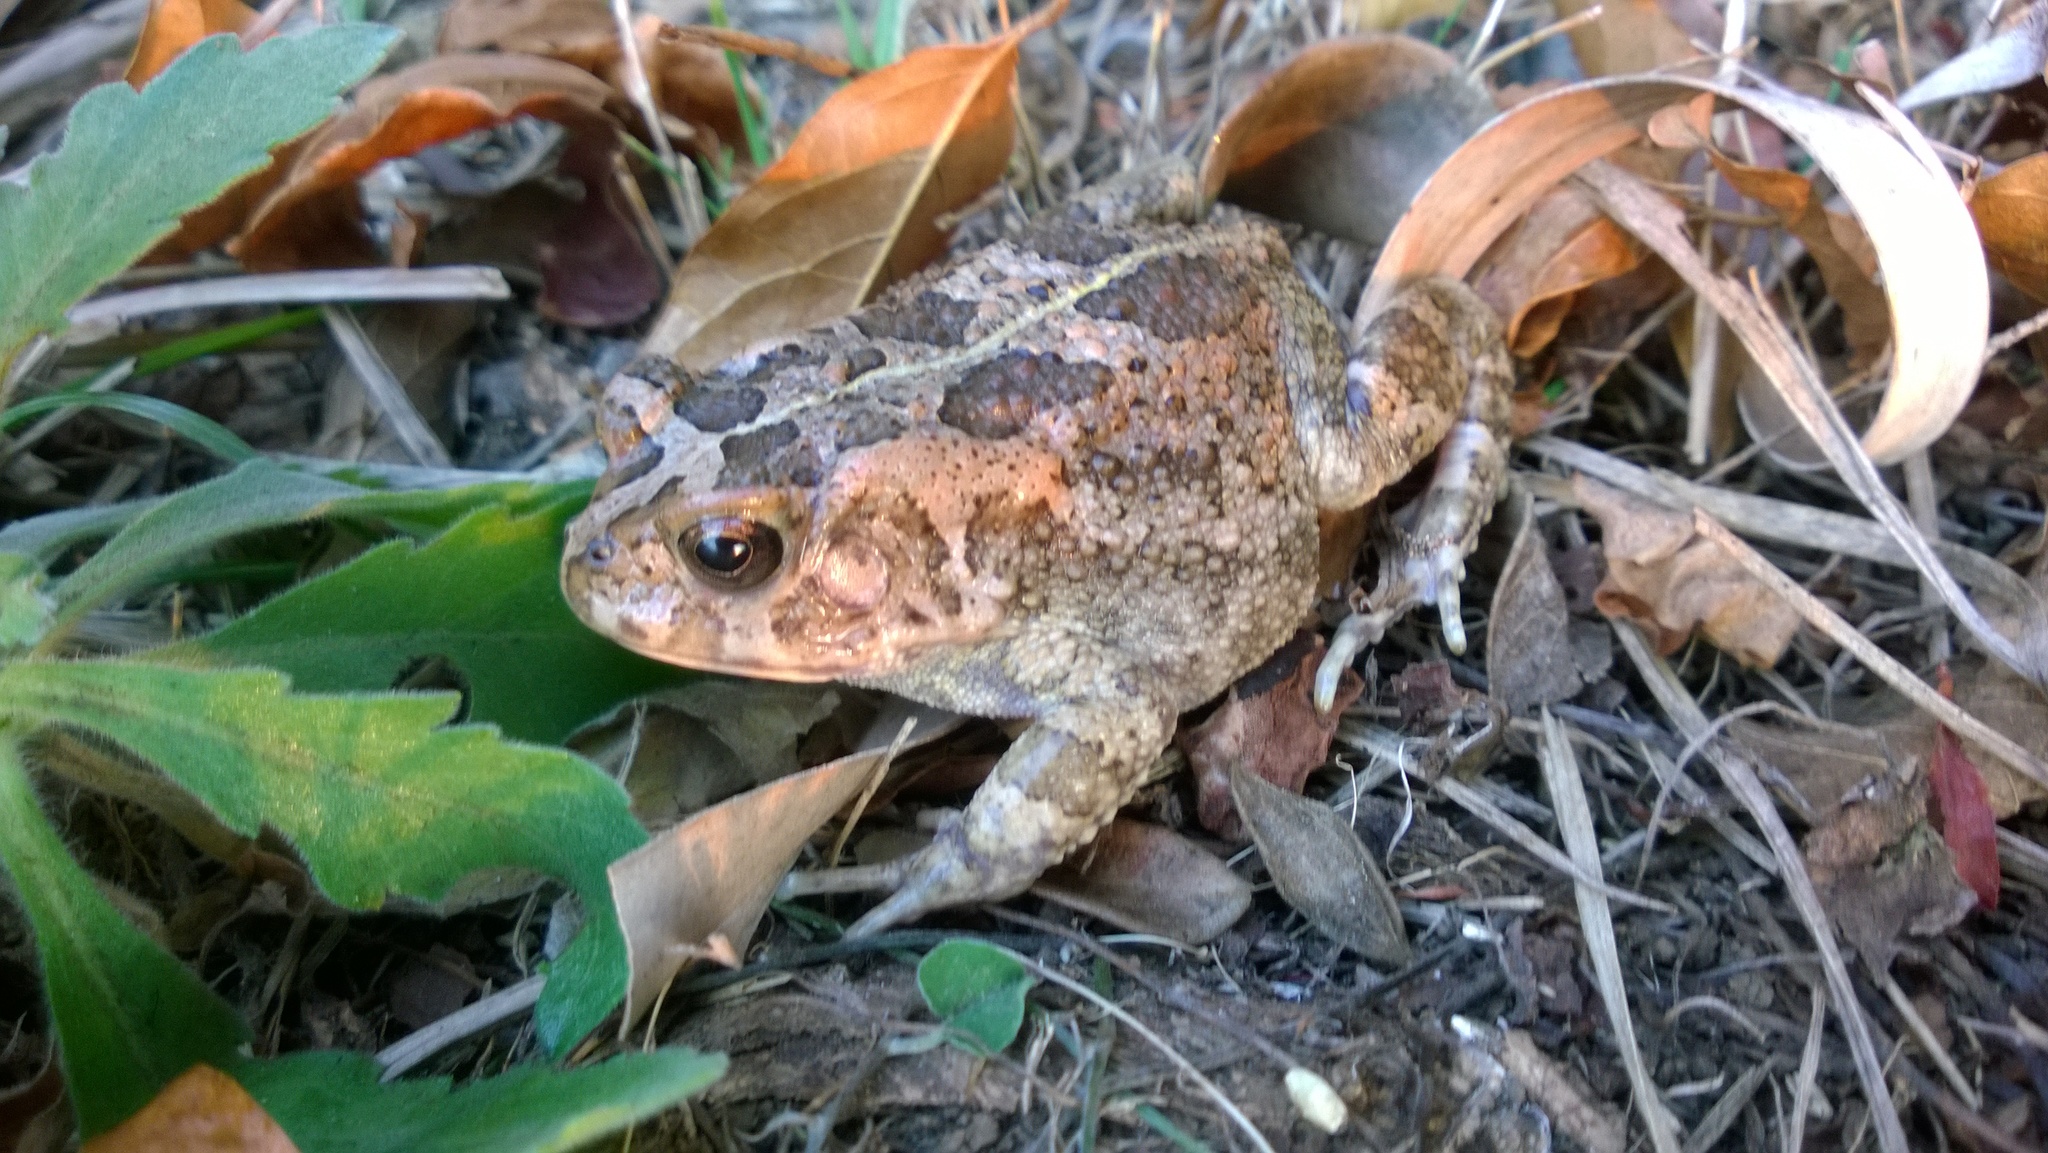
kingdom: Animalia
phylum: Chordata
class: Amphibia
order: Anura
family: Bufonidae
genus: Sclerophrys
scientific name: Sclerophrys gutturalis
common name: African common toad
